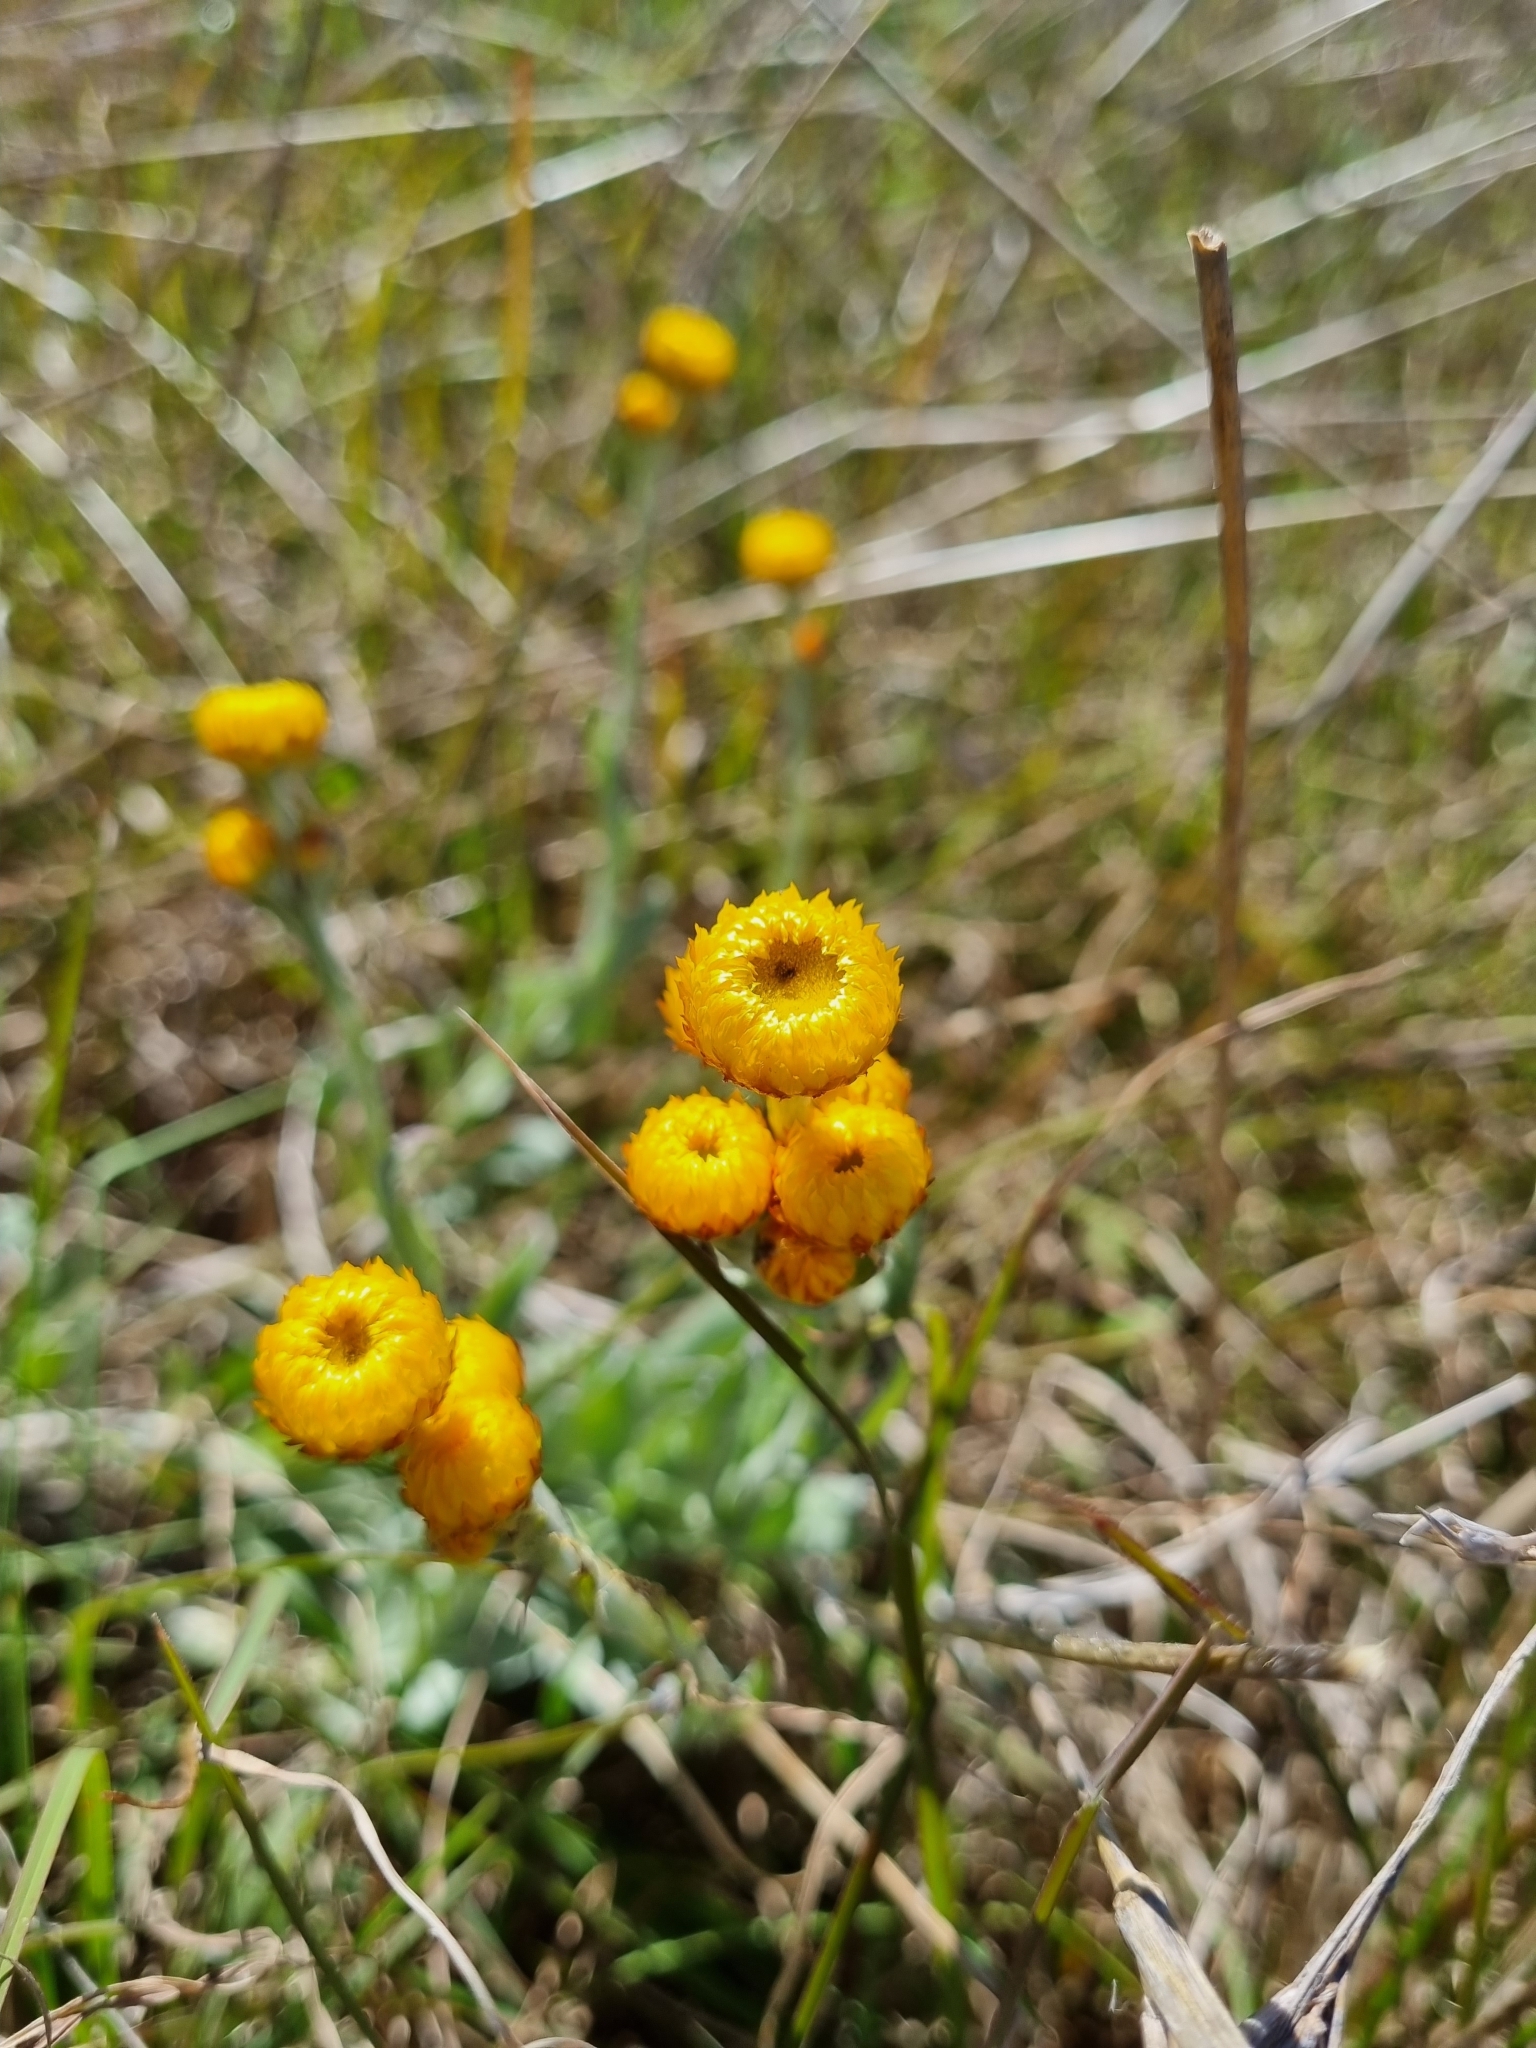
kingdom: Plantae
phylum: Tracheophyta
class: Magnoliopsida
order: Asterales
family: Asteraceae
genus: Chrysocephalum
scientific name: Chrysocephalum apiculatum
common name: Common everlasting
